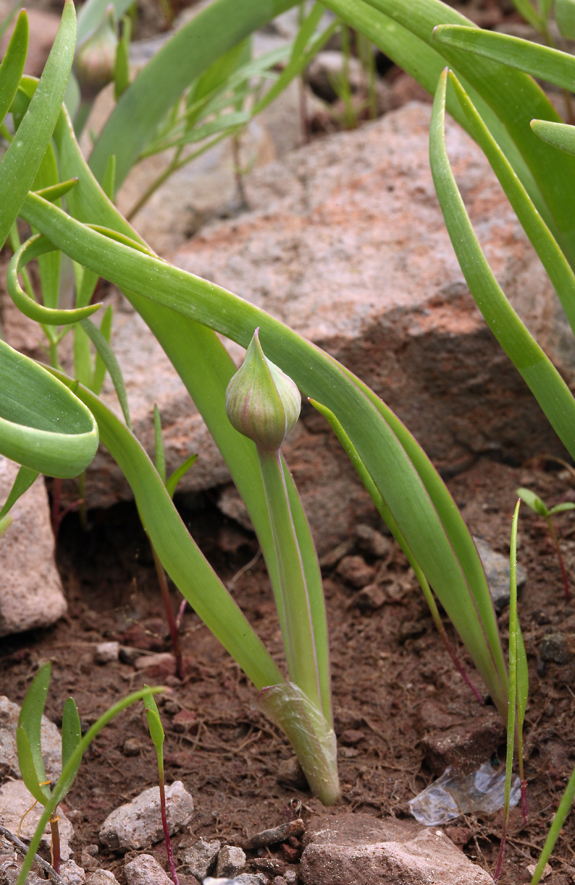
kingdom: Plantae
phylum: Tracheophyta
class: Liliopsida
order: Asparagales
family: Amaryllidaceae
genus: Allium
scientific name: Allium platycaule
